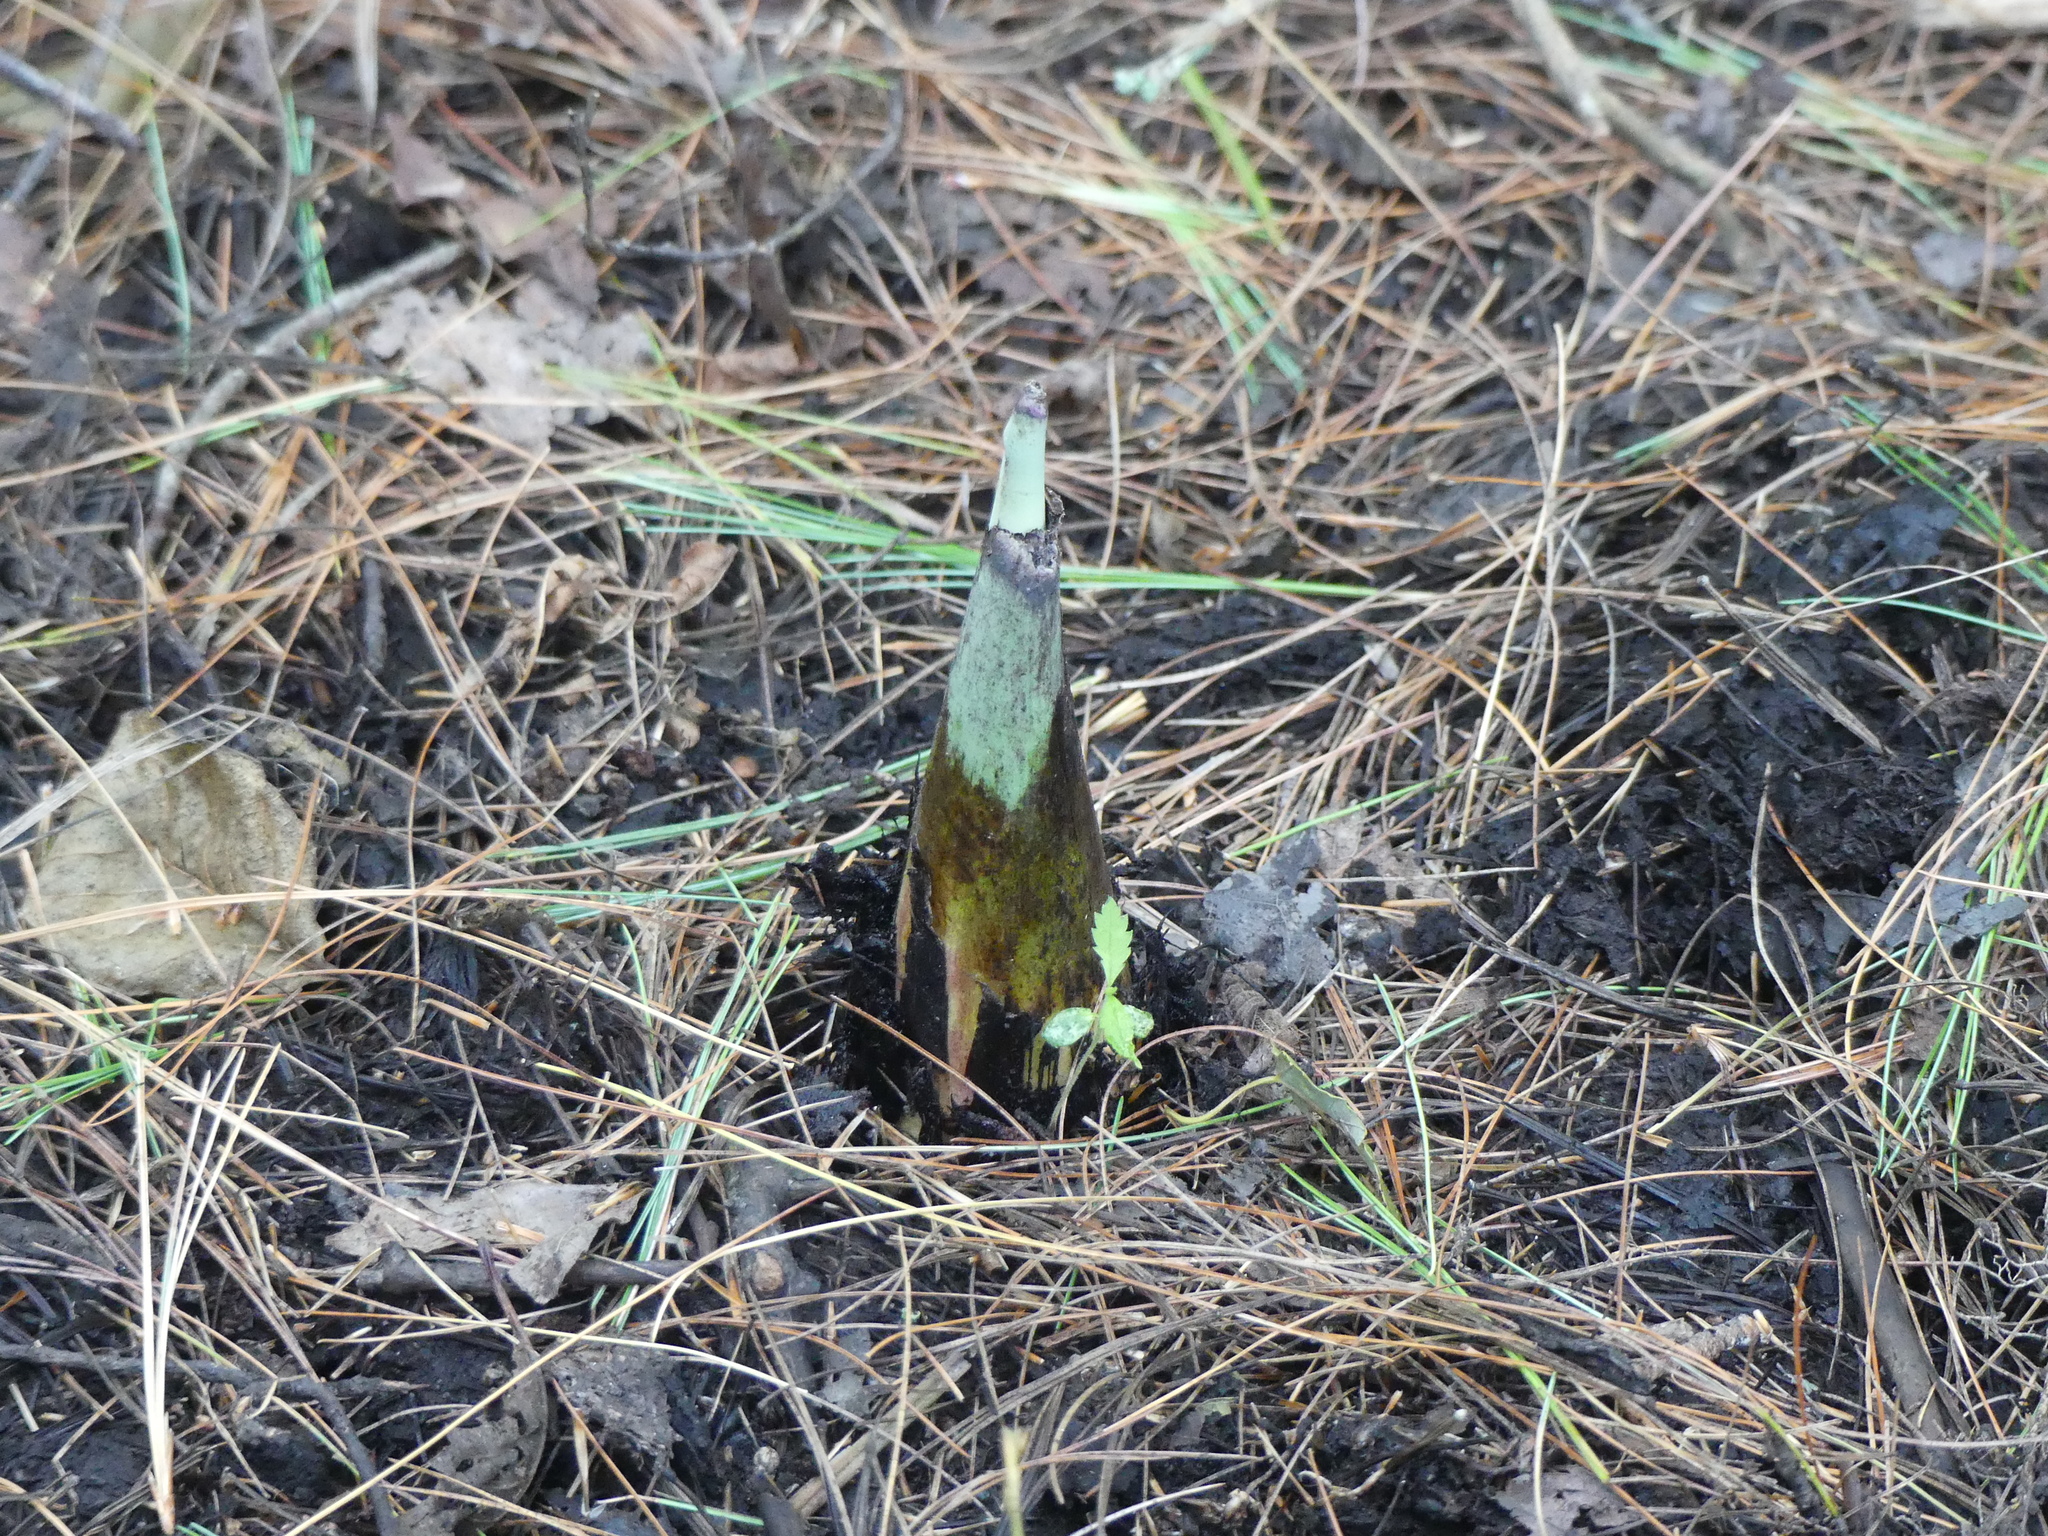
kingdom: Plantae
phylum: Tracheophyta
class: Liliopsida
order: Alismatales
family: Araceae
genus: Symplocarpus
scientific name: Symplocarpus foetidus
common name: Eastern skunk cabbage
